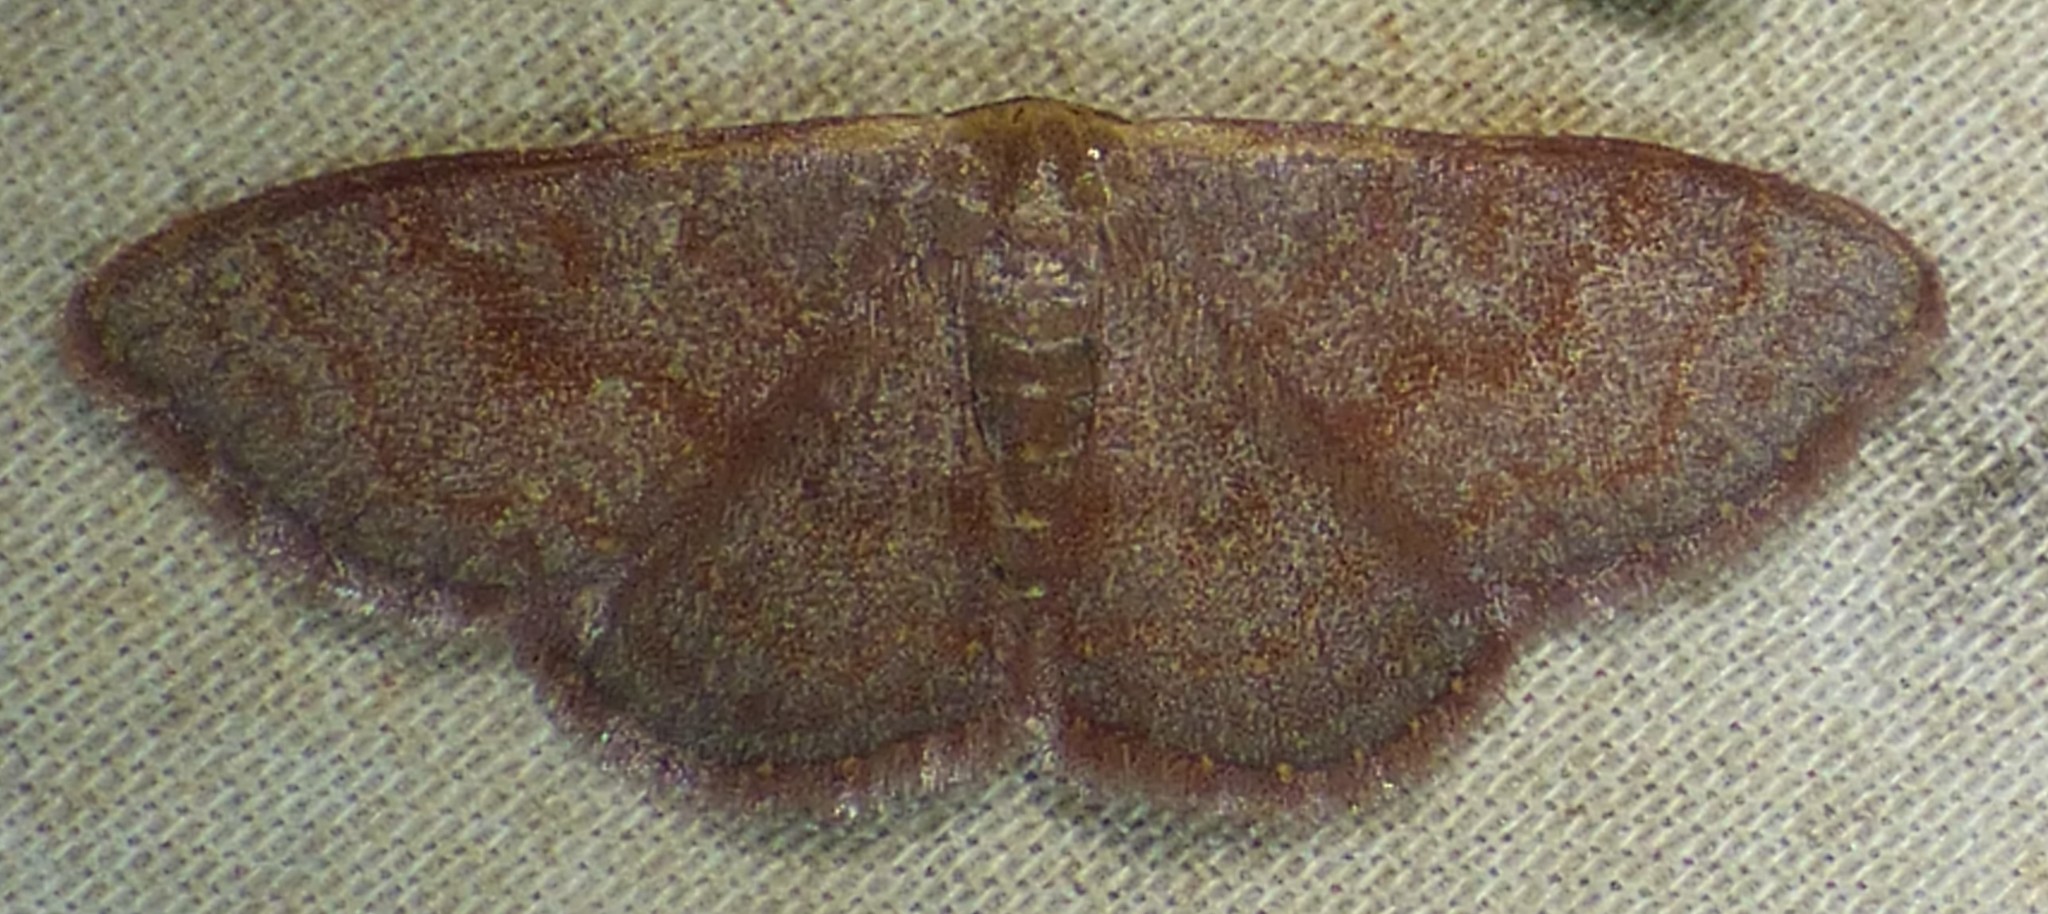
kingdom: Animalia
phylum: Arthropoda
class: Insecta
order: Lepidoptera
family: Geometridae
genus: Leptostales
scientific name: Leptostales pannaria
